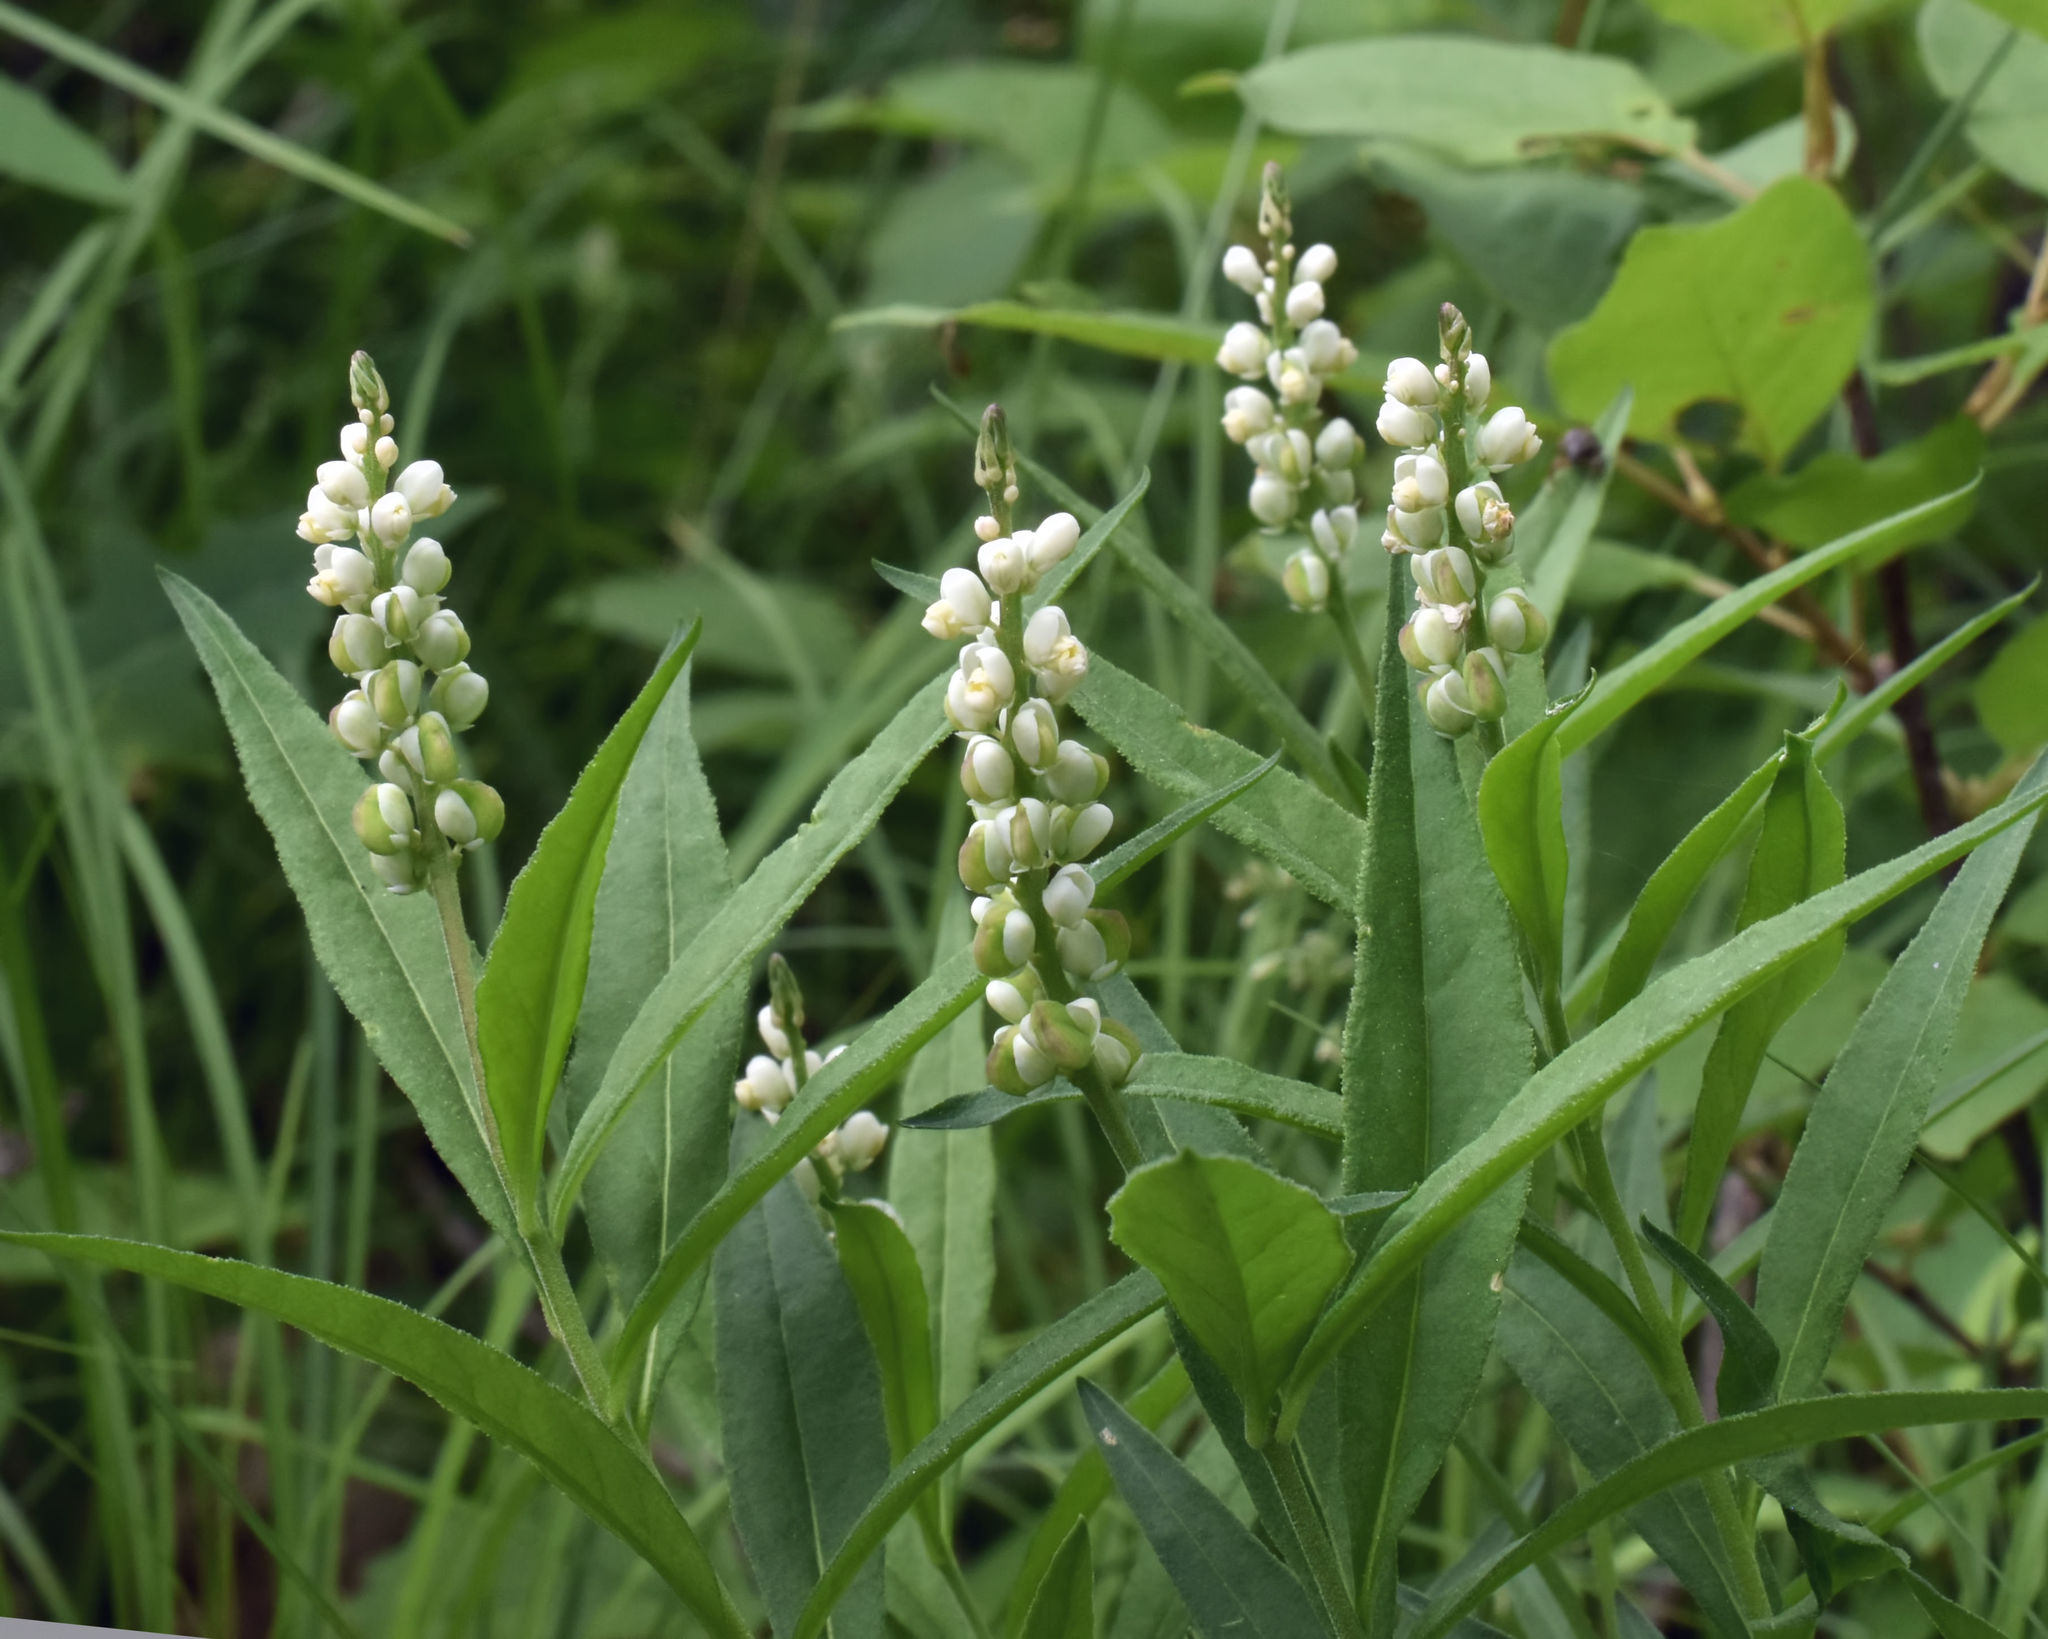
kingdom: Plantae
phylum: Tracheophyta
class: Magnoliopsida
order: Fabales
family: Polygalaceae
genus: Polygala
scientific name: Polygala senega
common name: Seneca snakeroot
